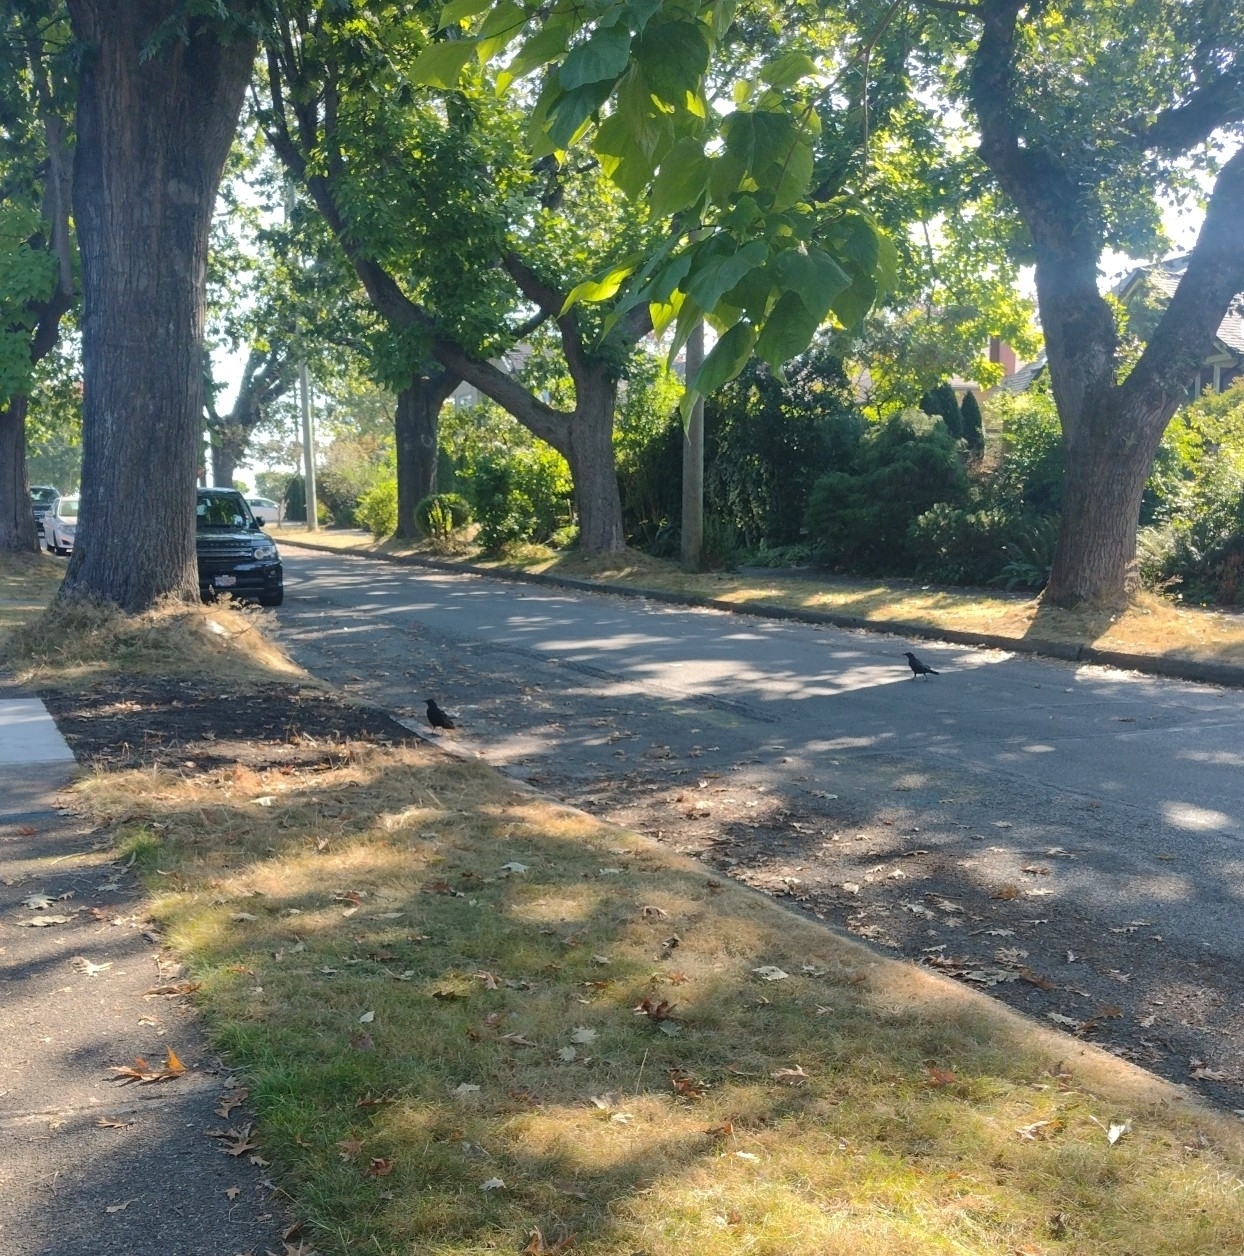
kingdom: Animalia
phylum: Chordata
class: Aves
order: Passeriformes
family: Corvidae
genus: Corvus
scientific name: Corvus brachyrhynchos
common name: American crow
